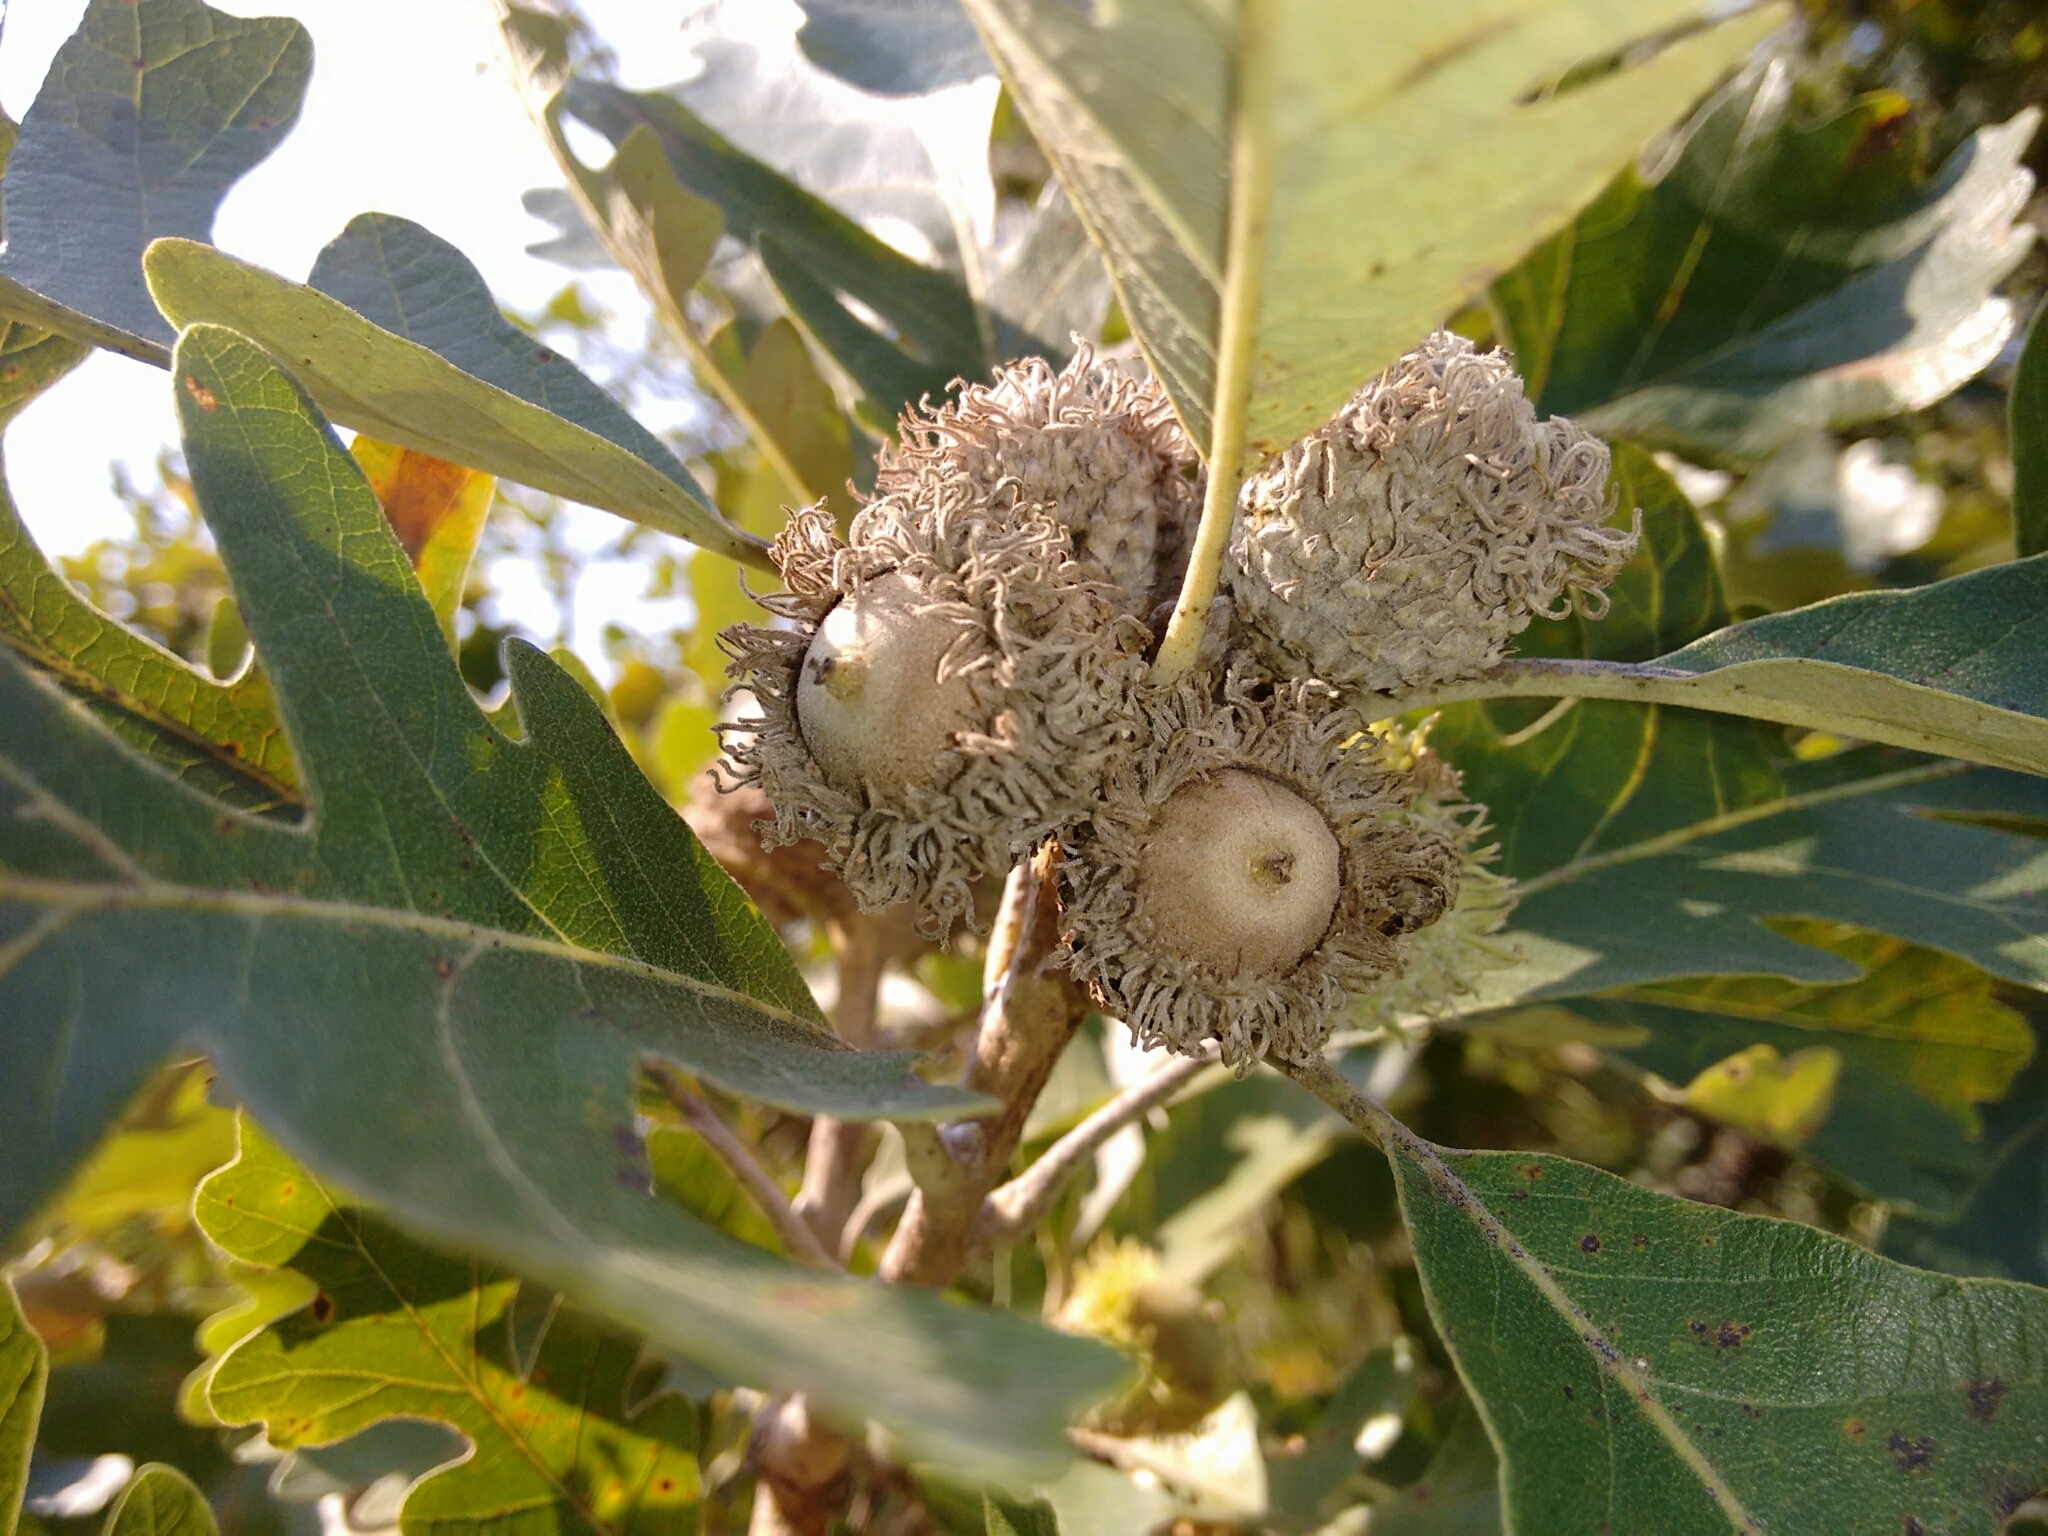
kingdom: Plantae
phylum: Tracheophyta
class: Magnoliopsida
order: Fagales
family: Fagaceae
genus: Quercus
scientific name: Quercus macrocarpa
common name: Bur oak
